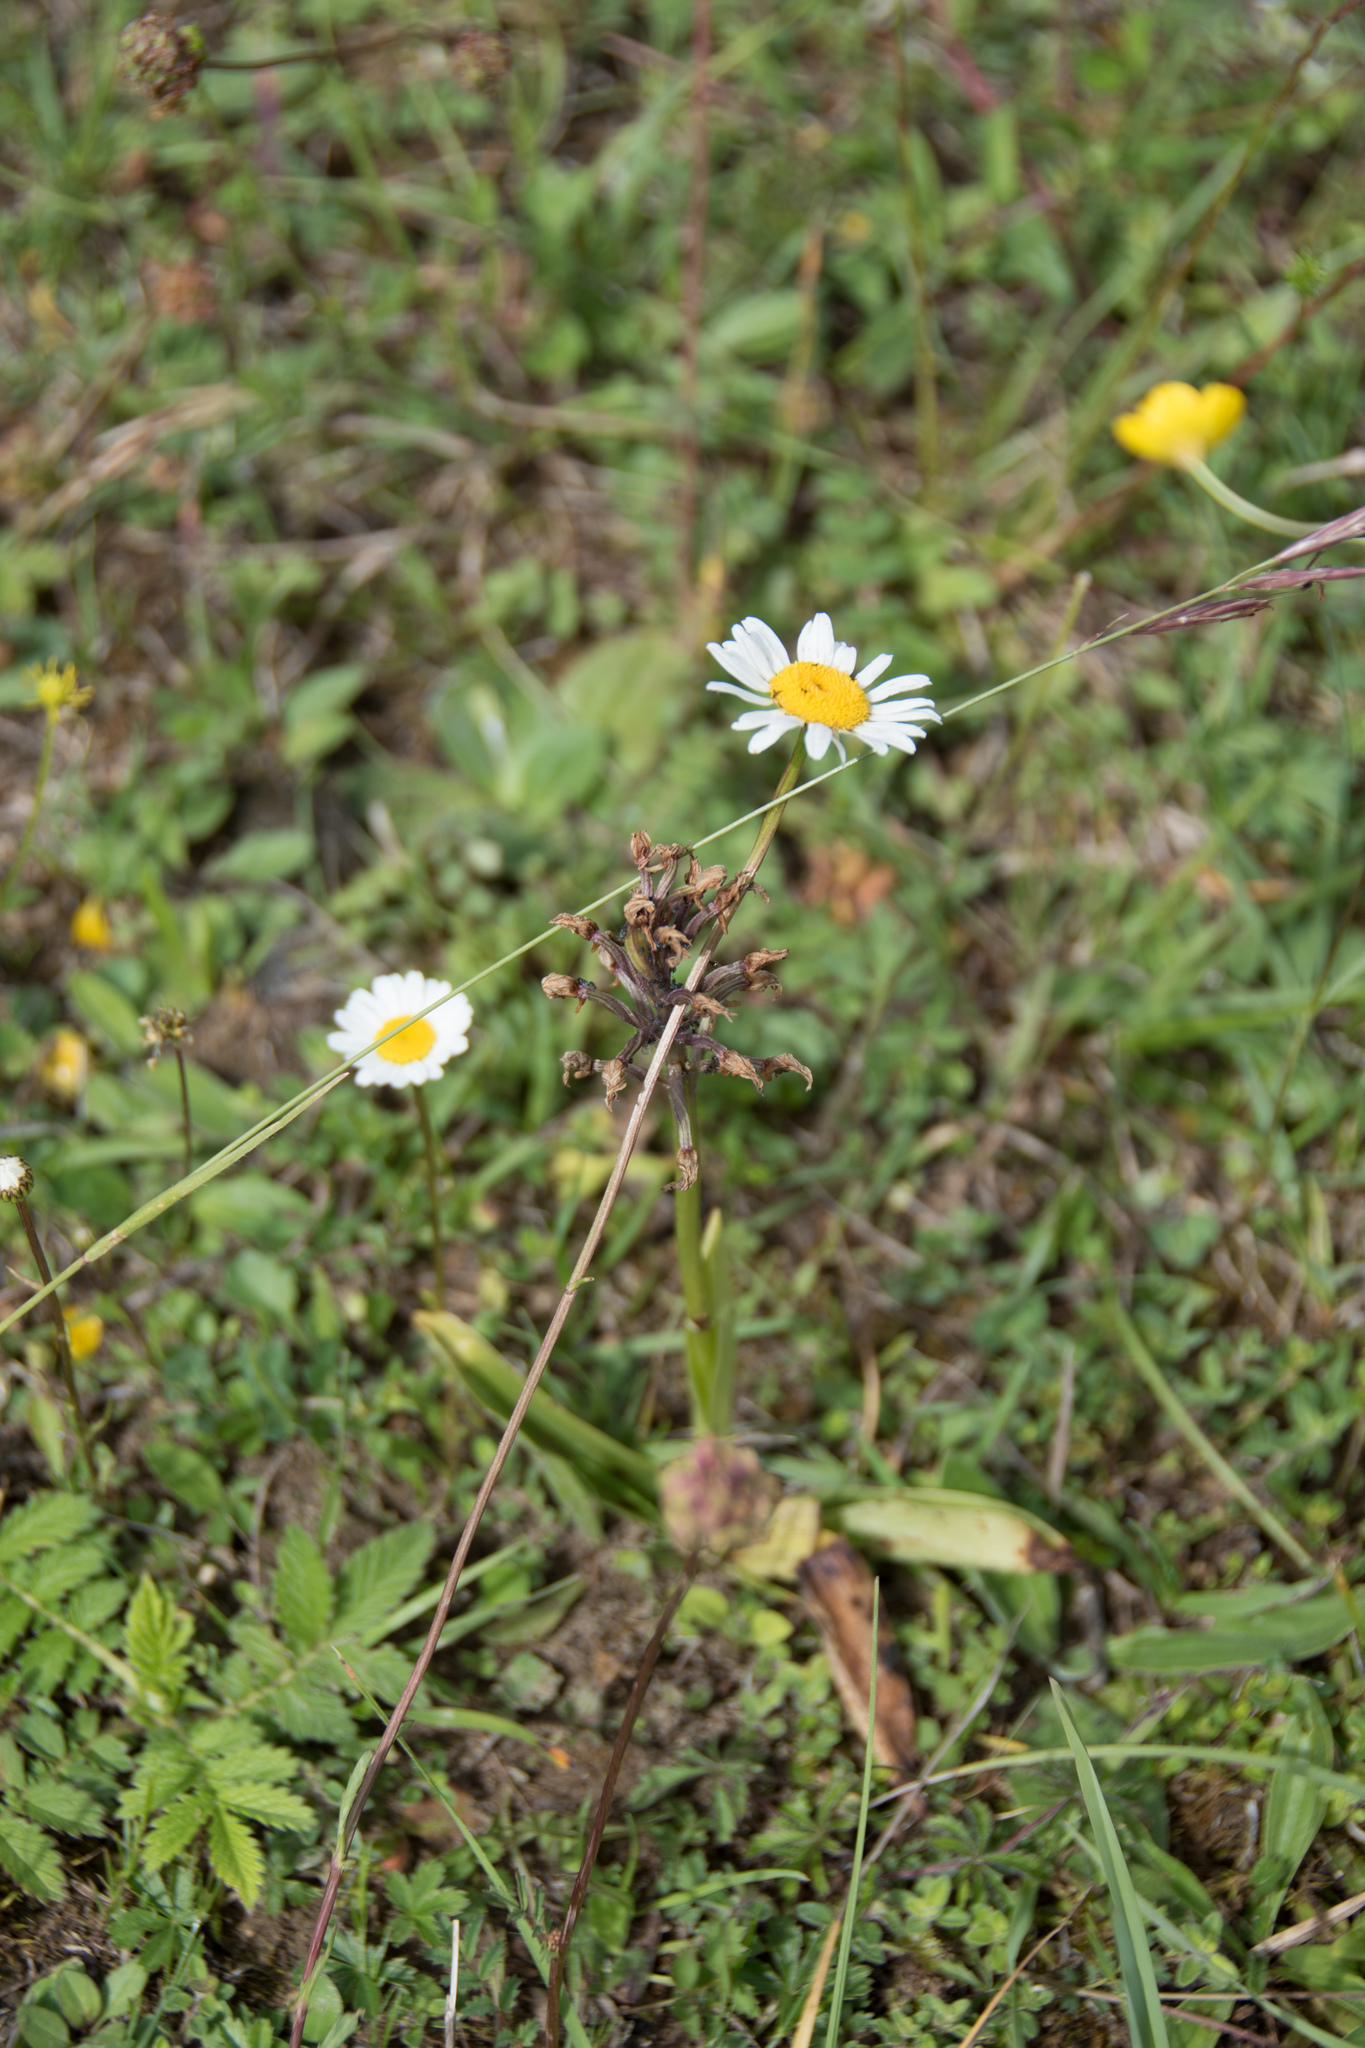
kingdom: Plantae
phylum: Tracheophyta
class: Liliopsida
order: Asparagales
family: Orchidaceae
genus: Orchis
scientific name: Orchis militaris
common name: Military orchid
